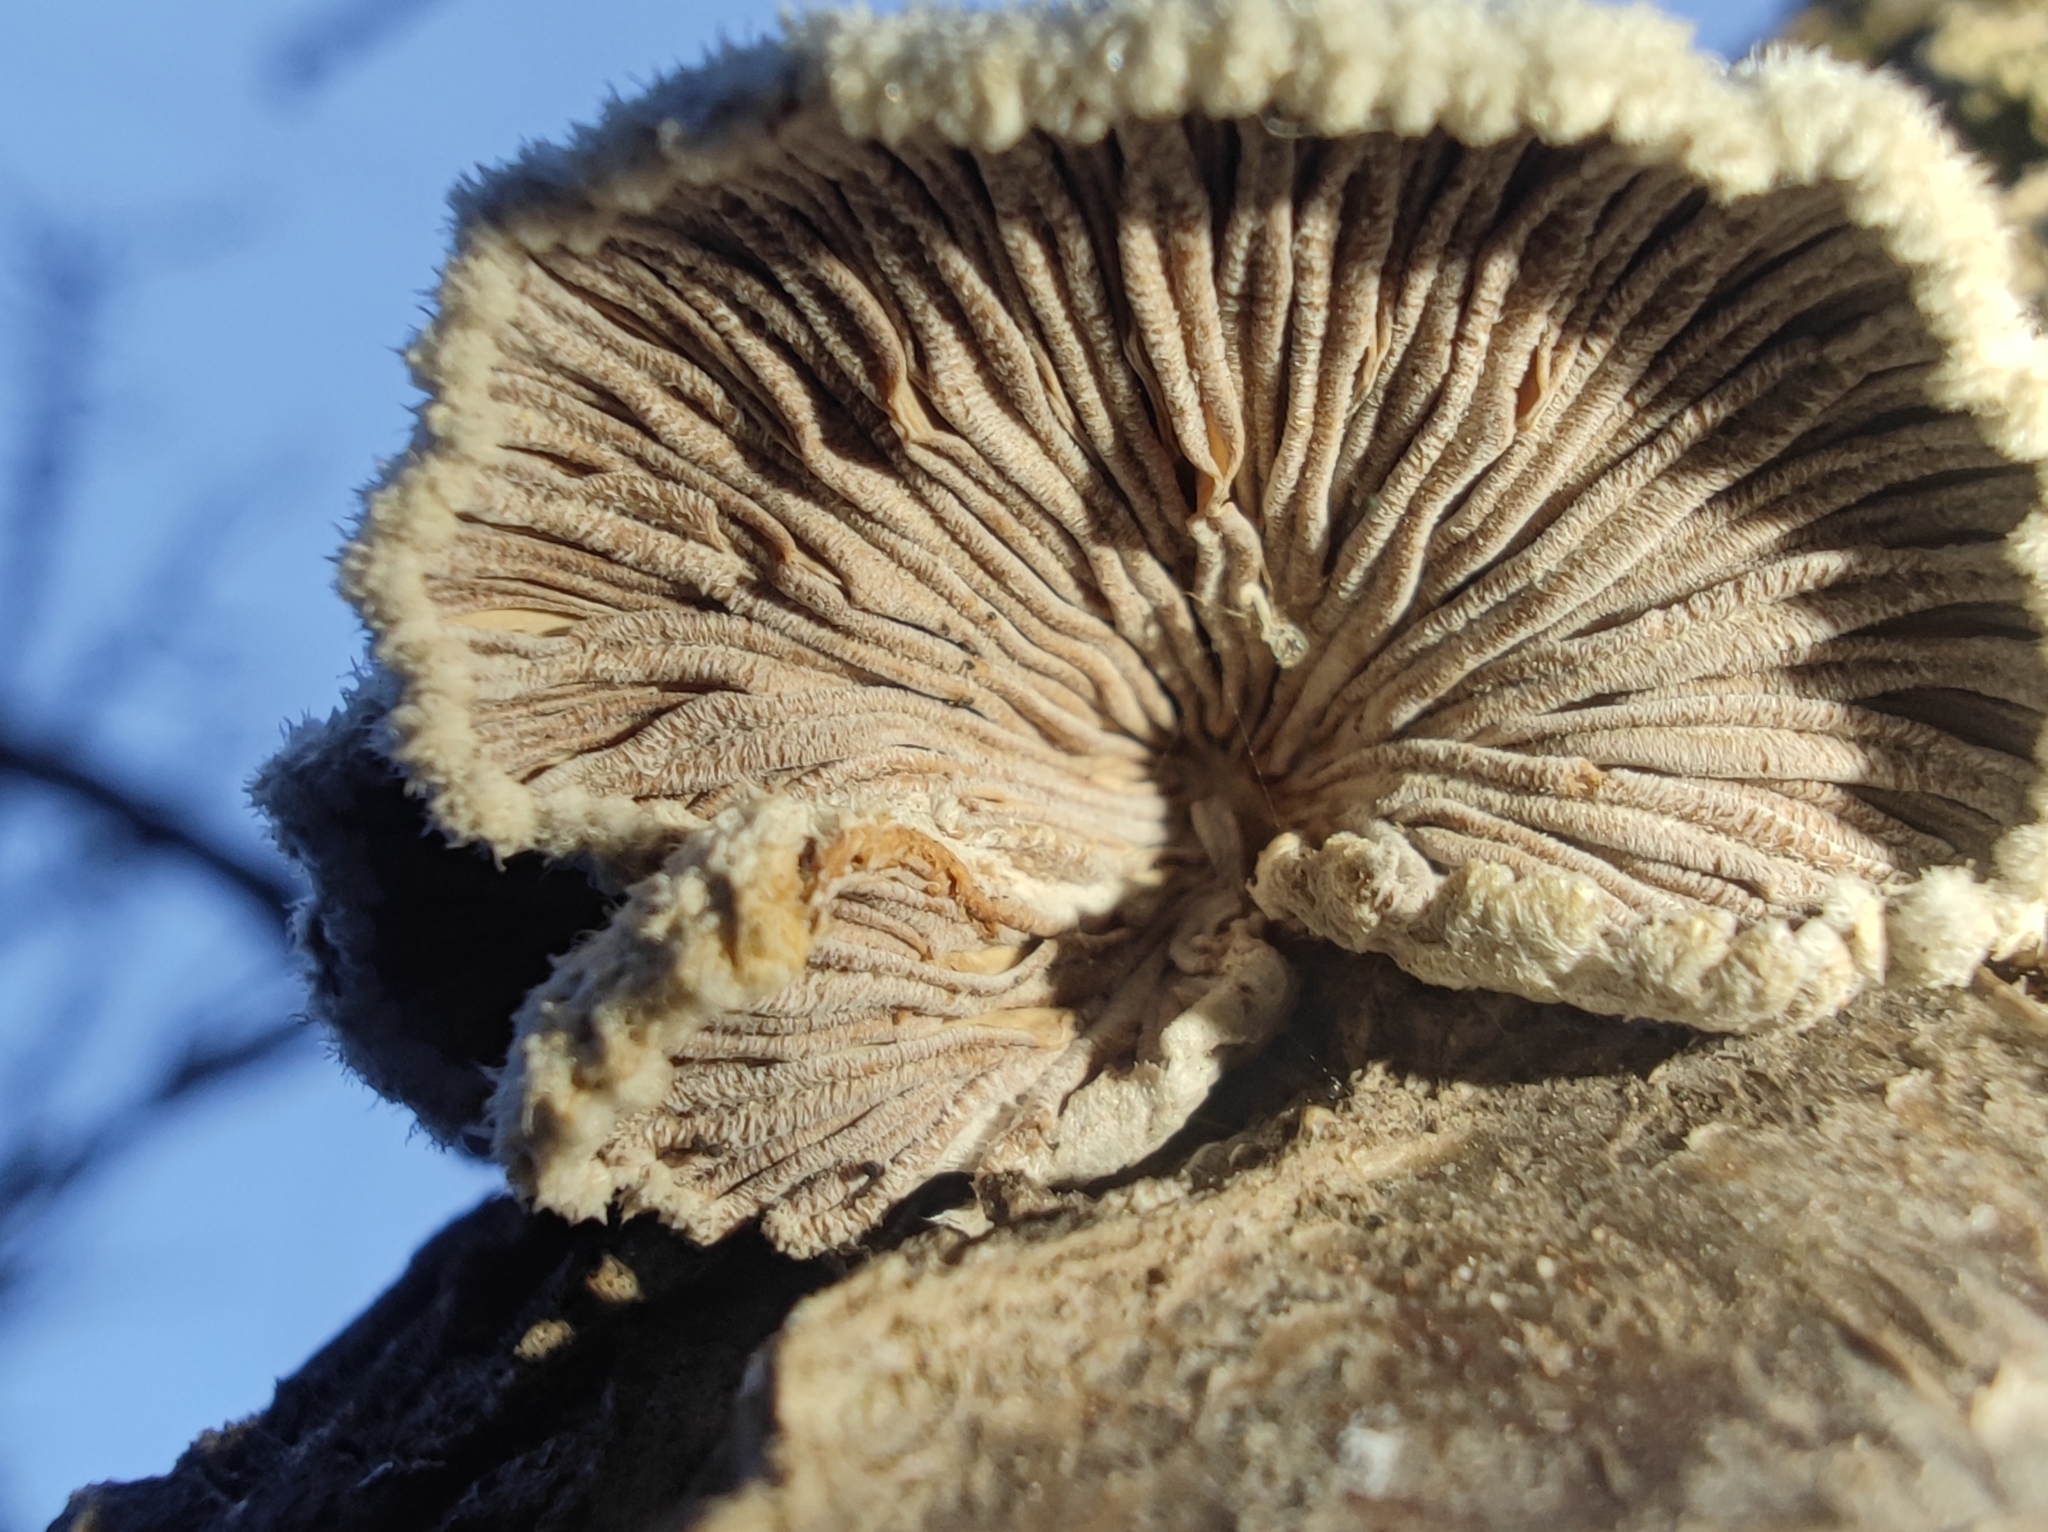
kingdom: Fungi
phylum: Basidiomycota
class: Agaricomycetes
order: Agaricales
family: Schizophyllaceae
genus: Schizophyllum
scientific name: Schizophyllum commune
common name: Common porecrust
